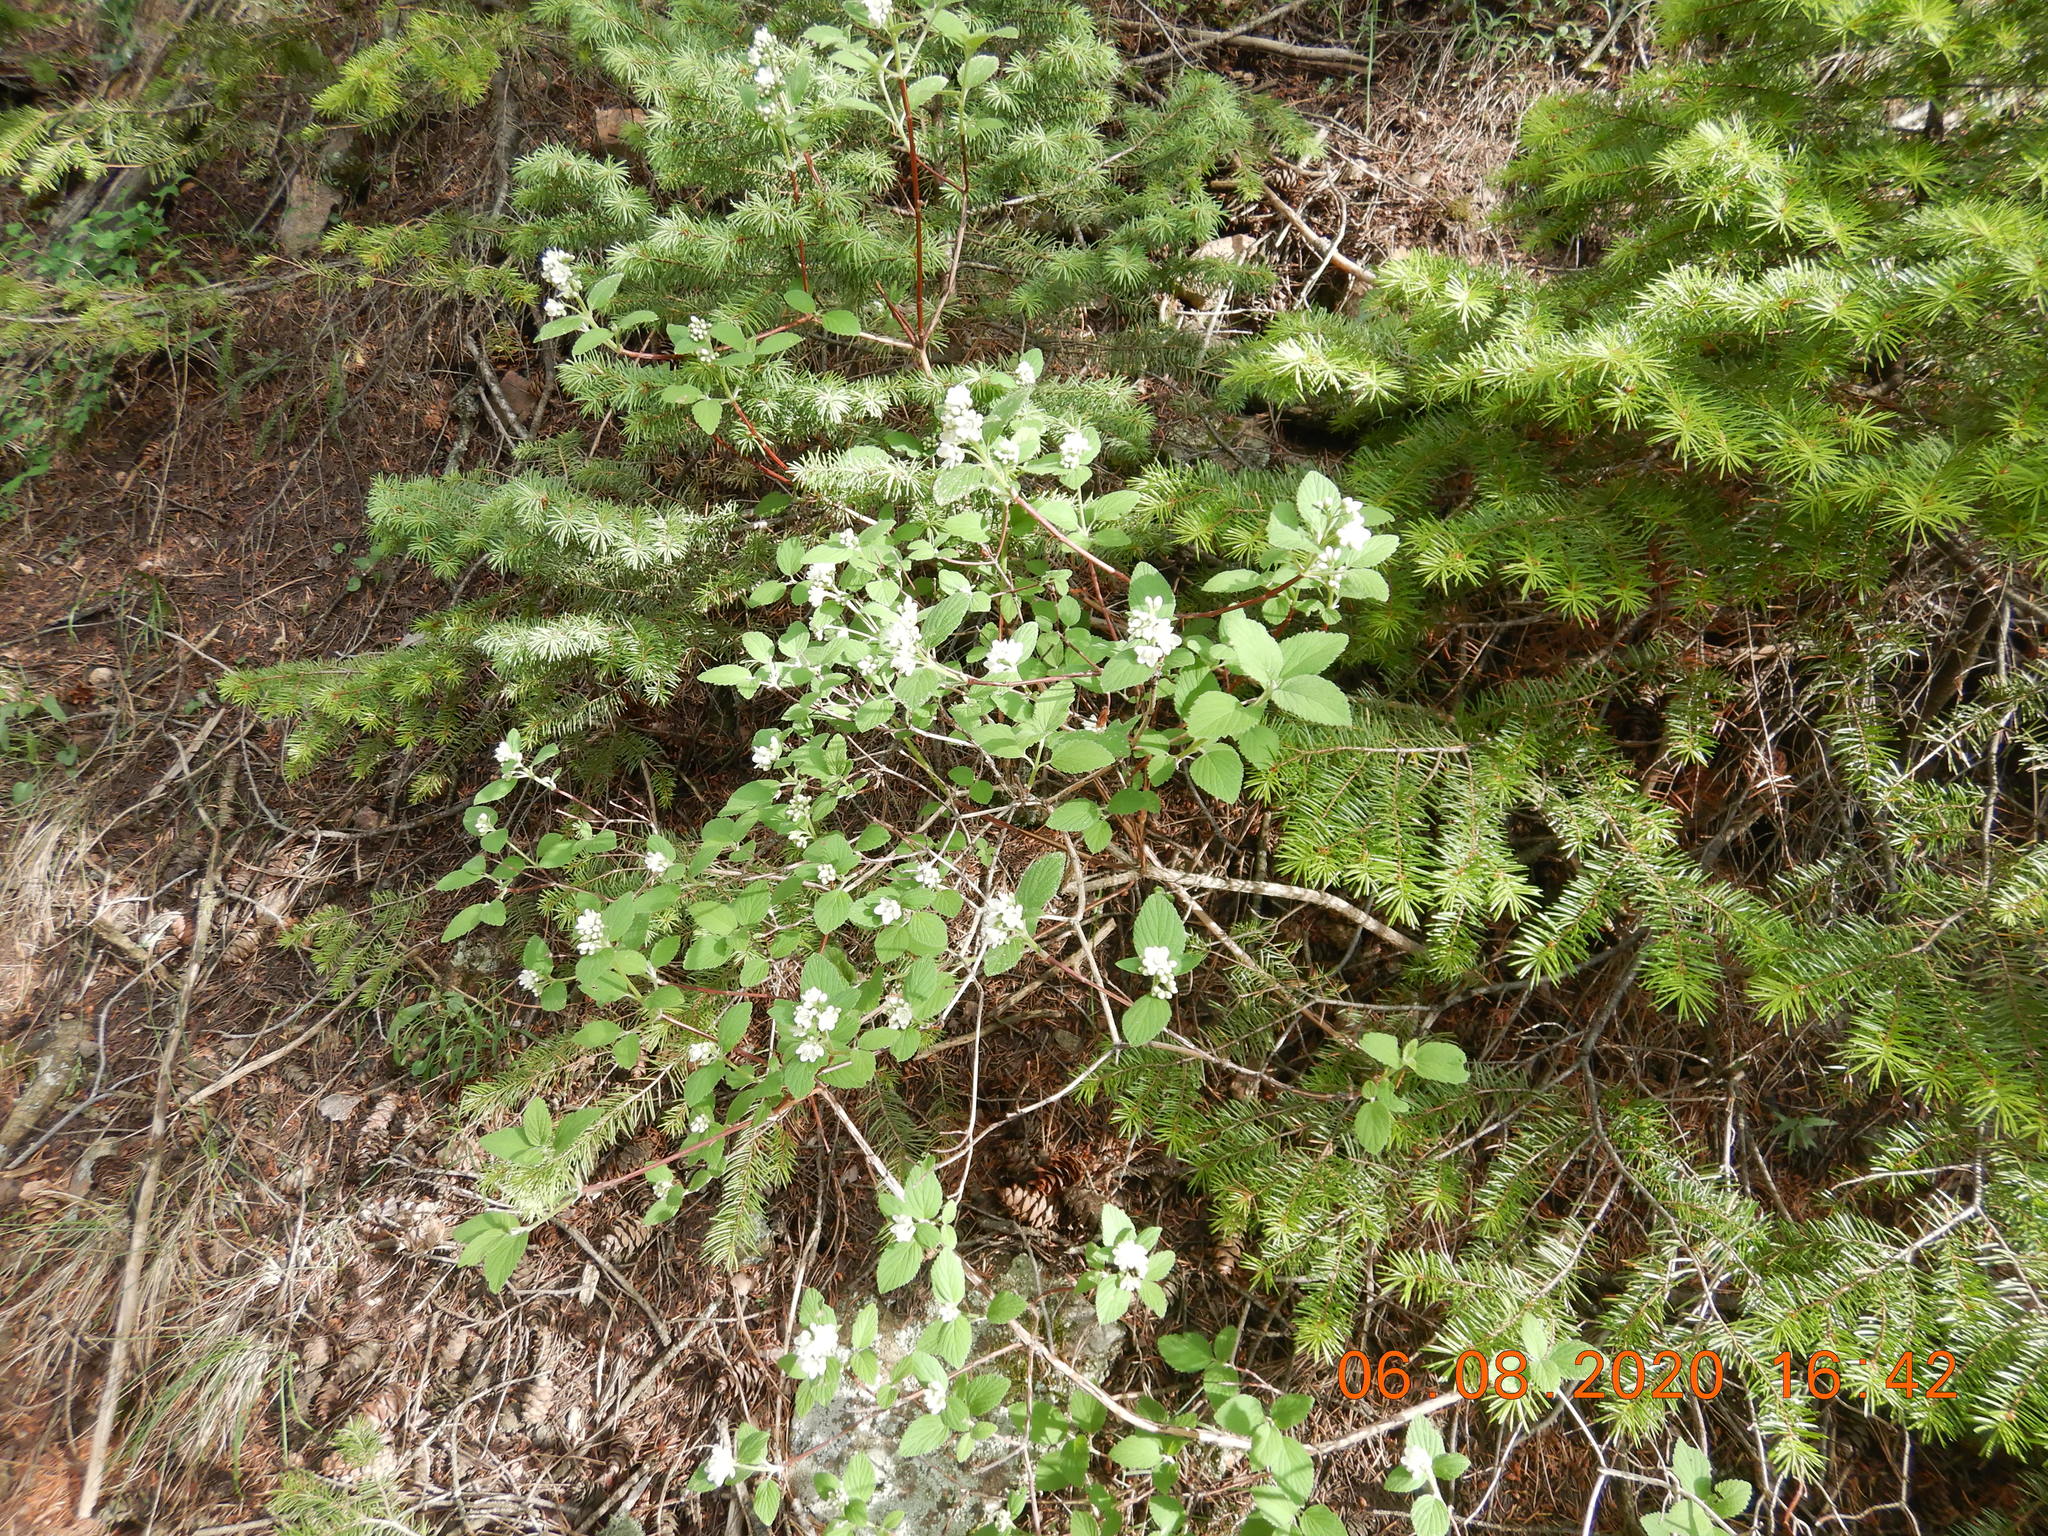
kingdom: Plantae
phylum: Tracheophyta
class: Magnoliopsida
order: Cornales
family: Hydrangeaceae
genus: Jamesia
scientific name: Jamesia americana
